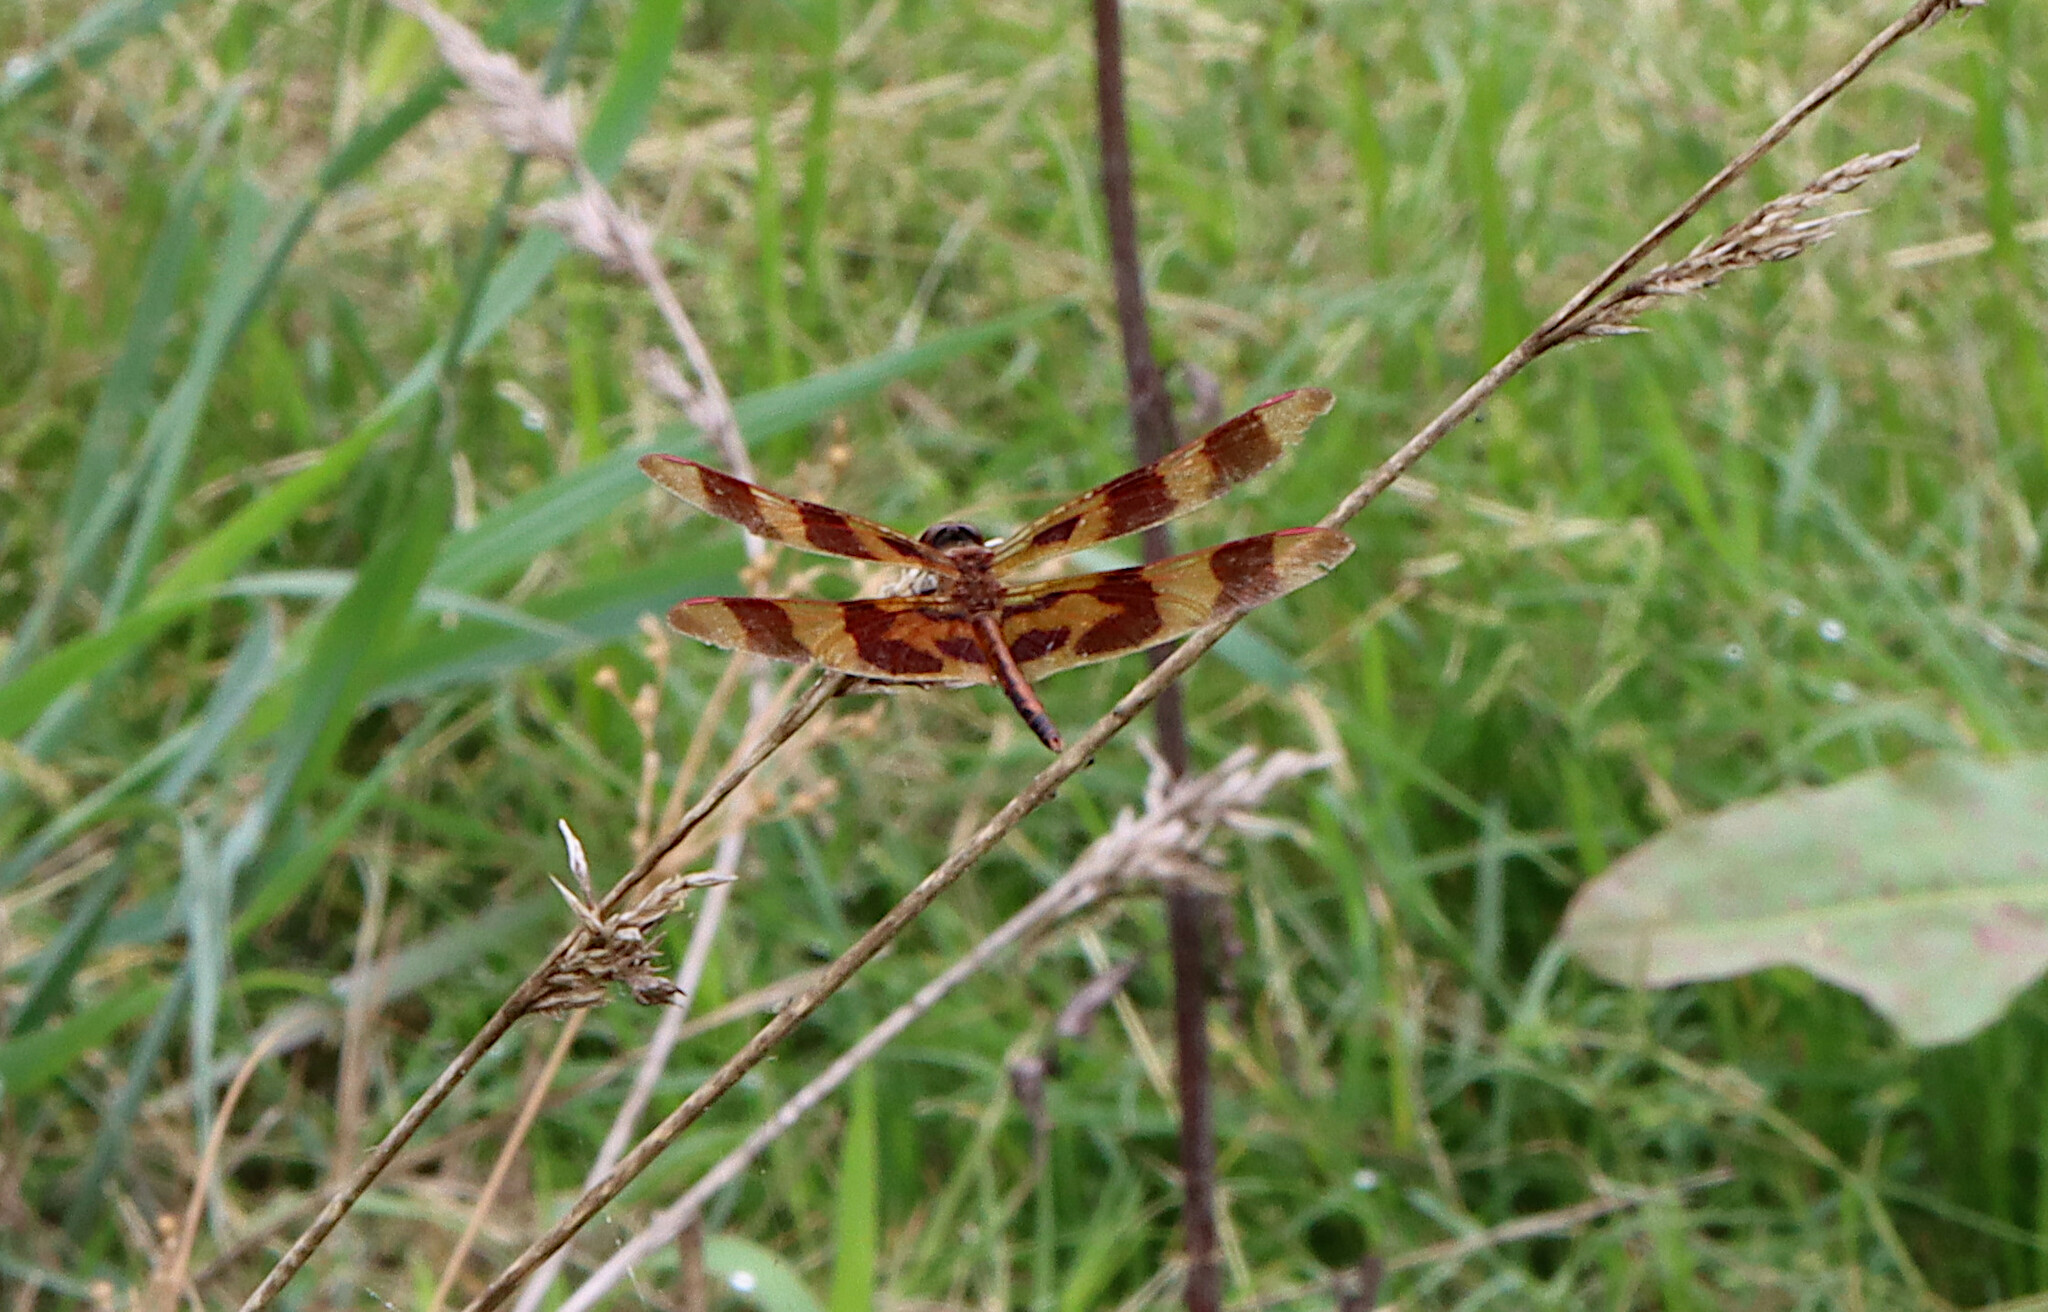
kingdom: Animalia
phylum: Arthropoda
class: Insecta
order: Odonata
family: Libellulidae
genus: Celithemis
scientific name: Celithemis eponina
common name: Halloween pennant
